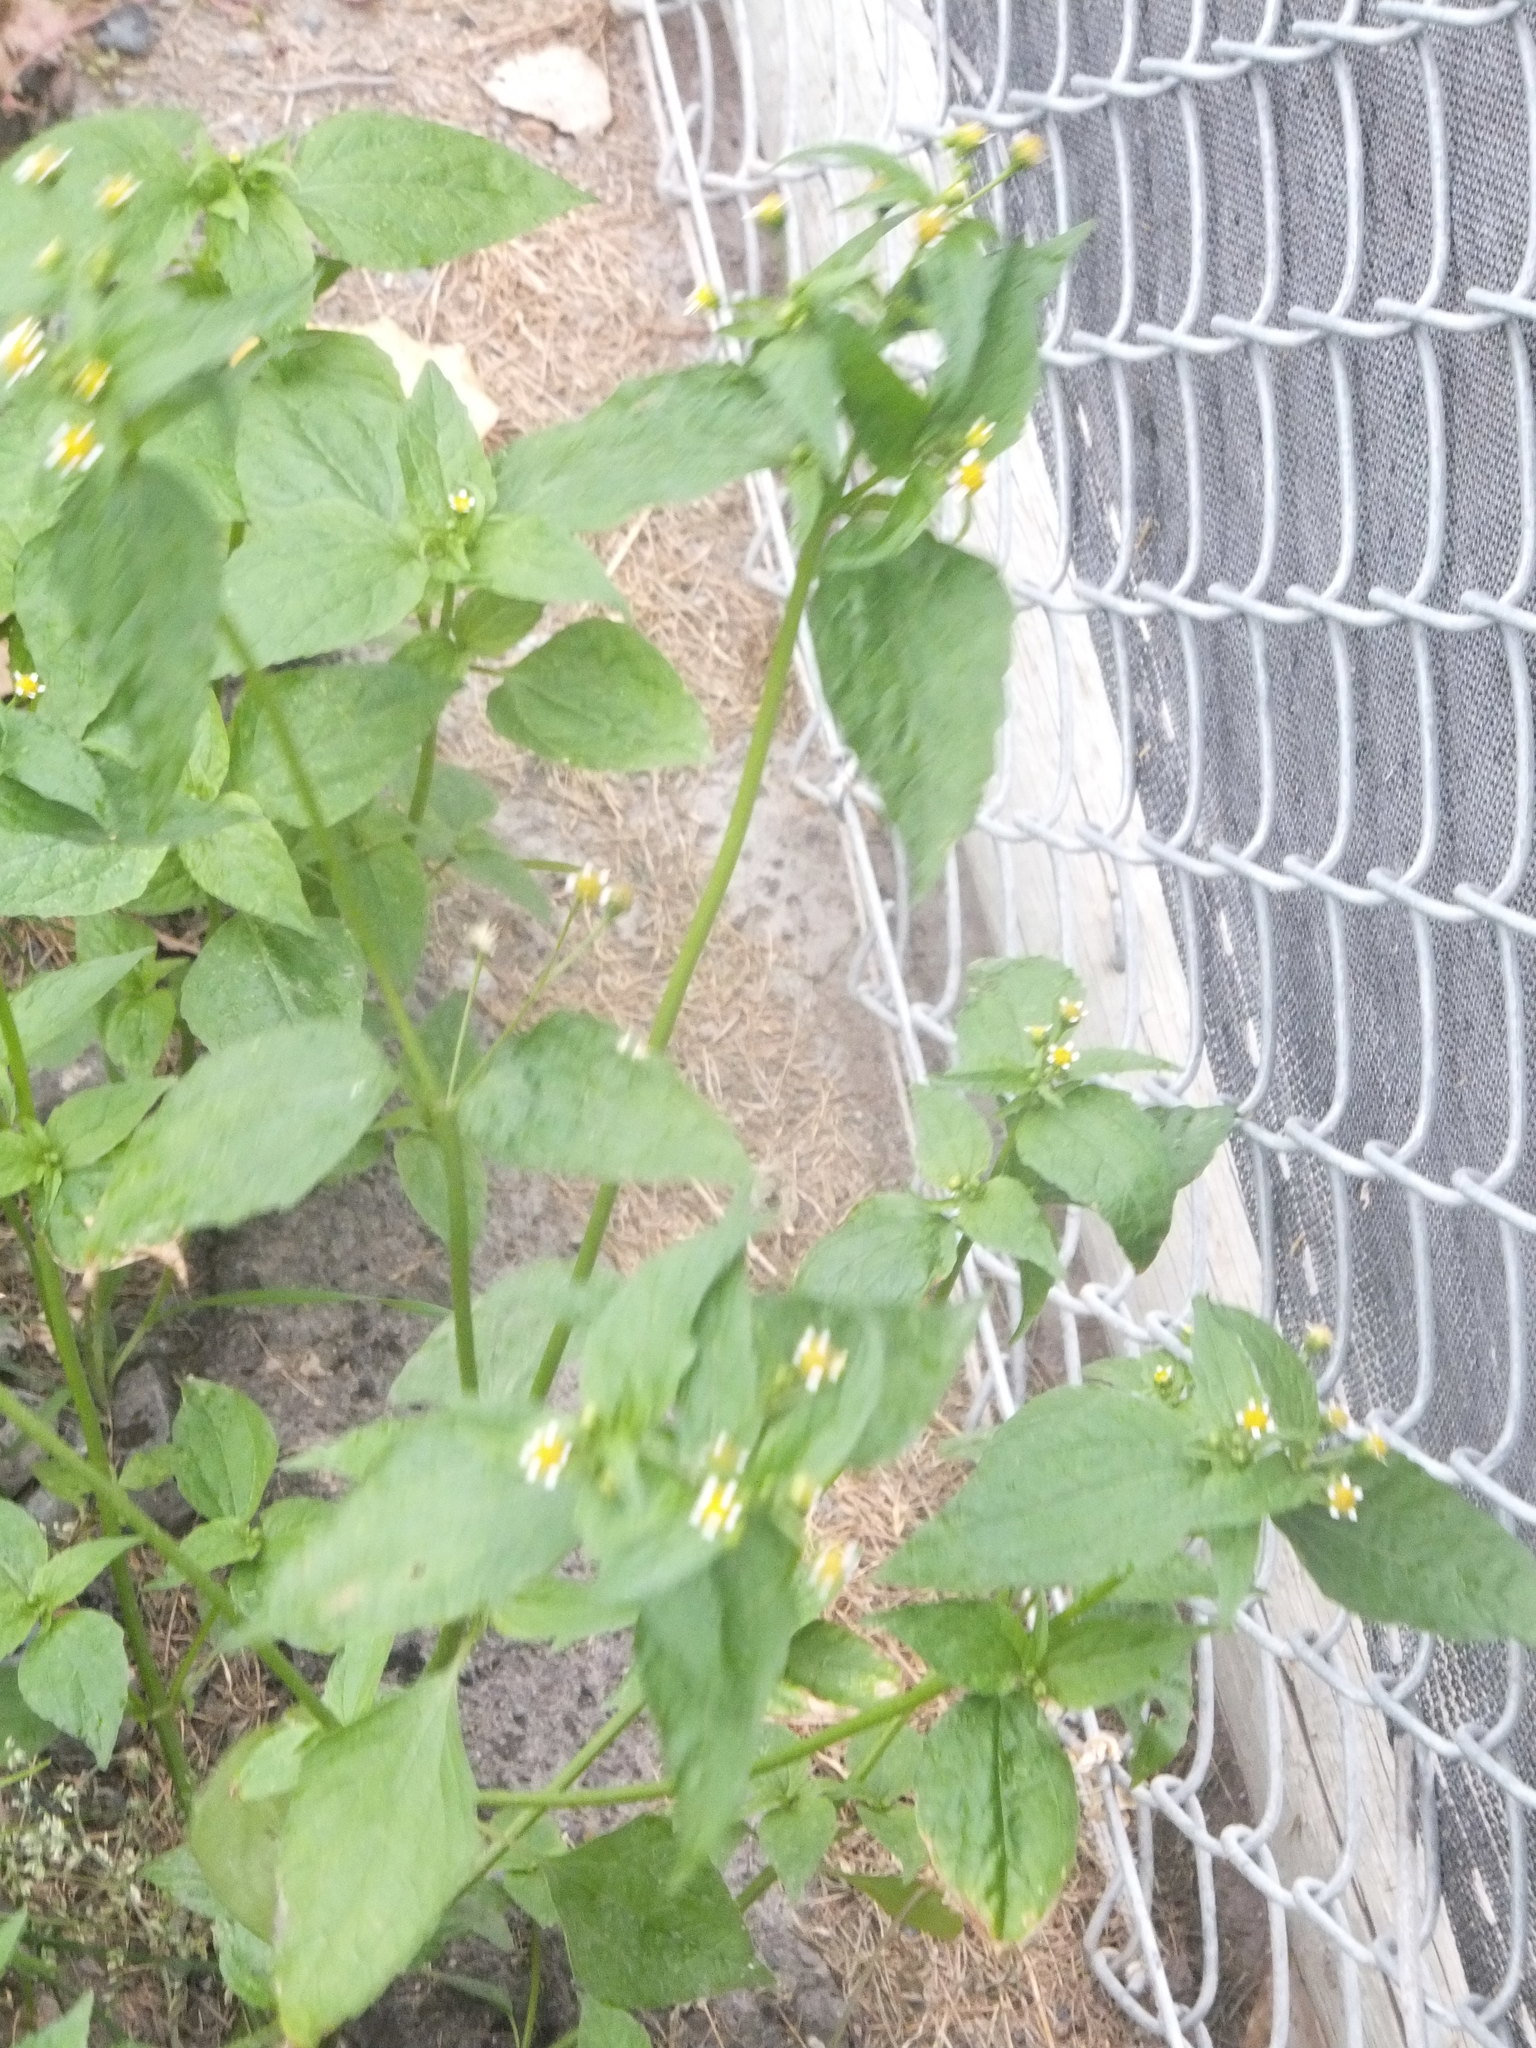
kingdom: Plantae
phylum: Tracheophyta
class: Magnoliopsida
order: Asterales
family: Asteraceae
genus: Galinsoga
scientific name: Galinsoga parviflora
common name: Gallant soldier
